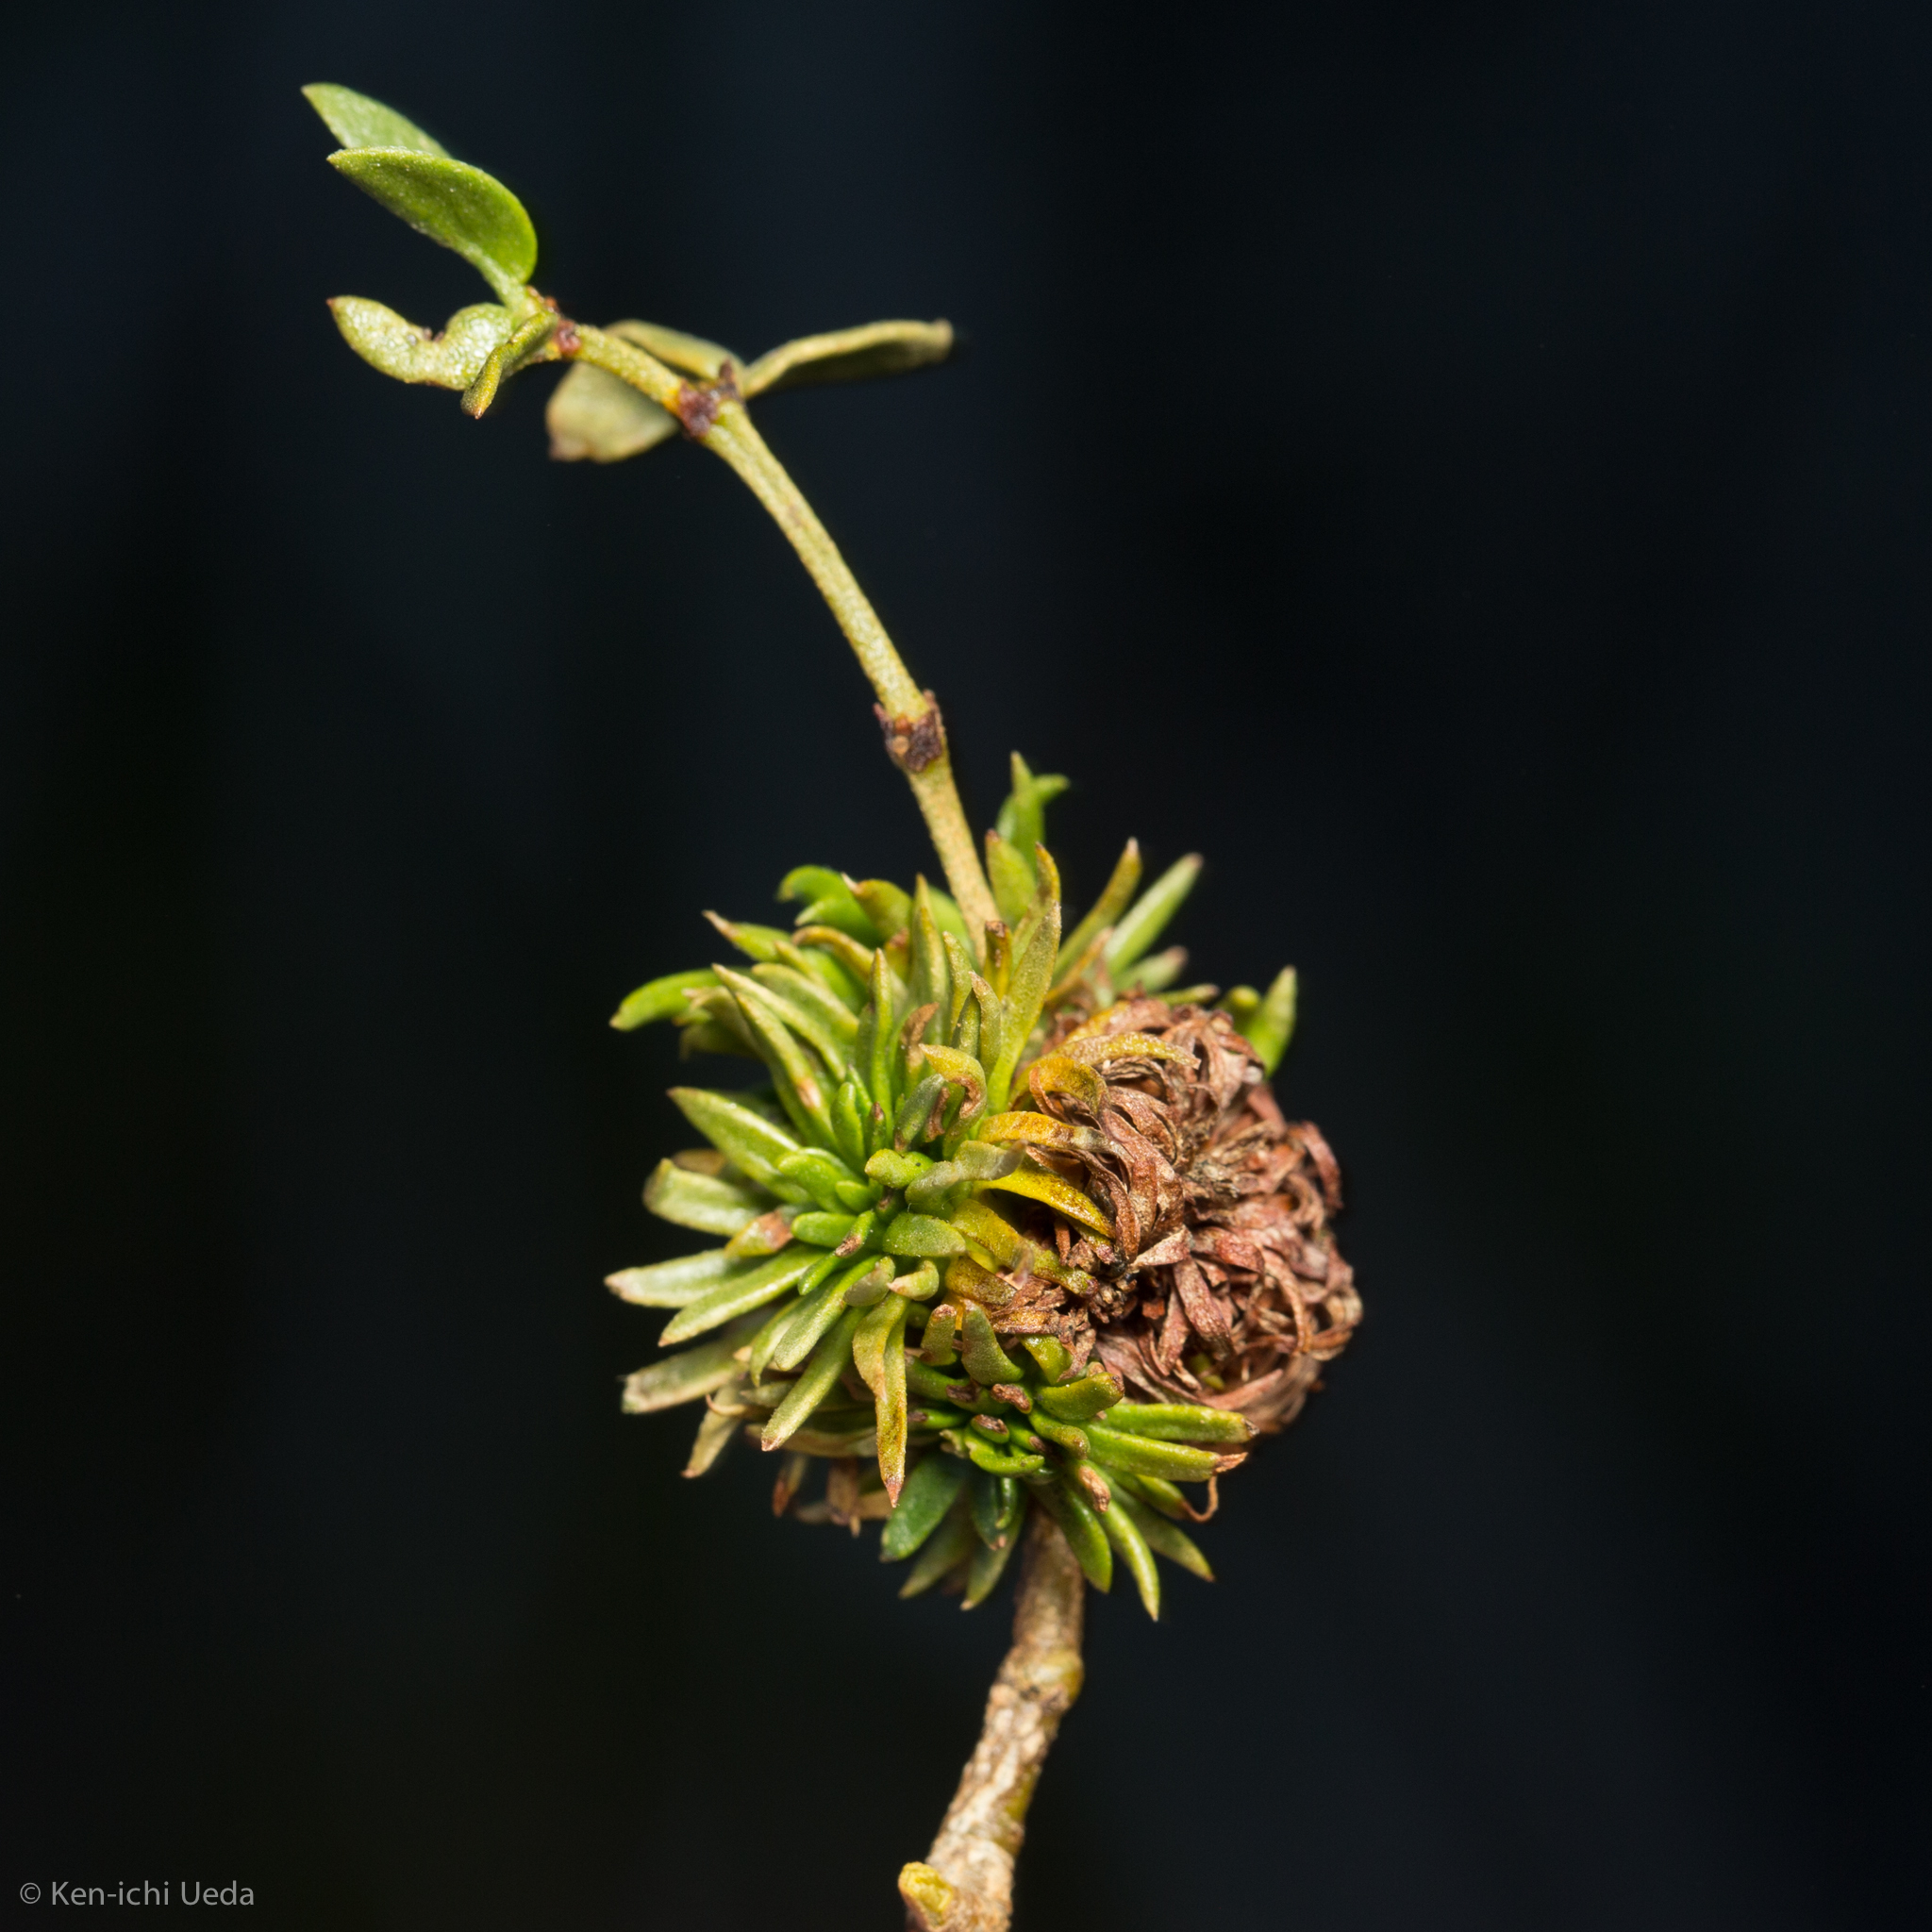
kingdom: Animalia
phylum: Arthropoda
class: Insecta
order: Diptera
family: Cecidomyiidae
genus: Asphondylia
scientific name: Asphondylia auripila
